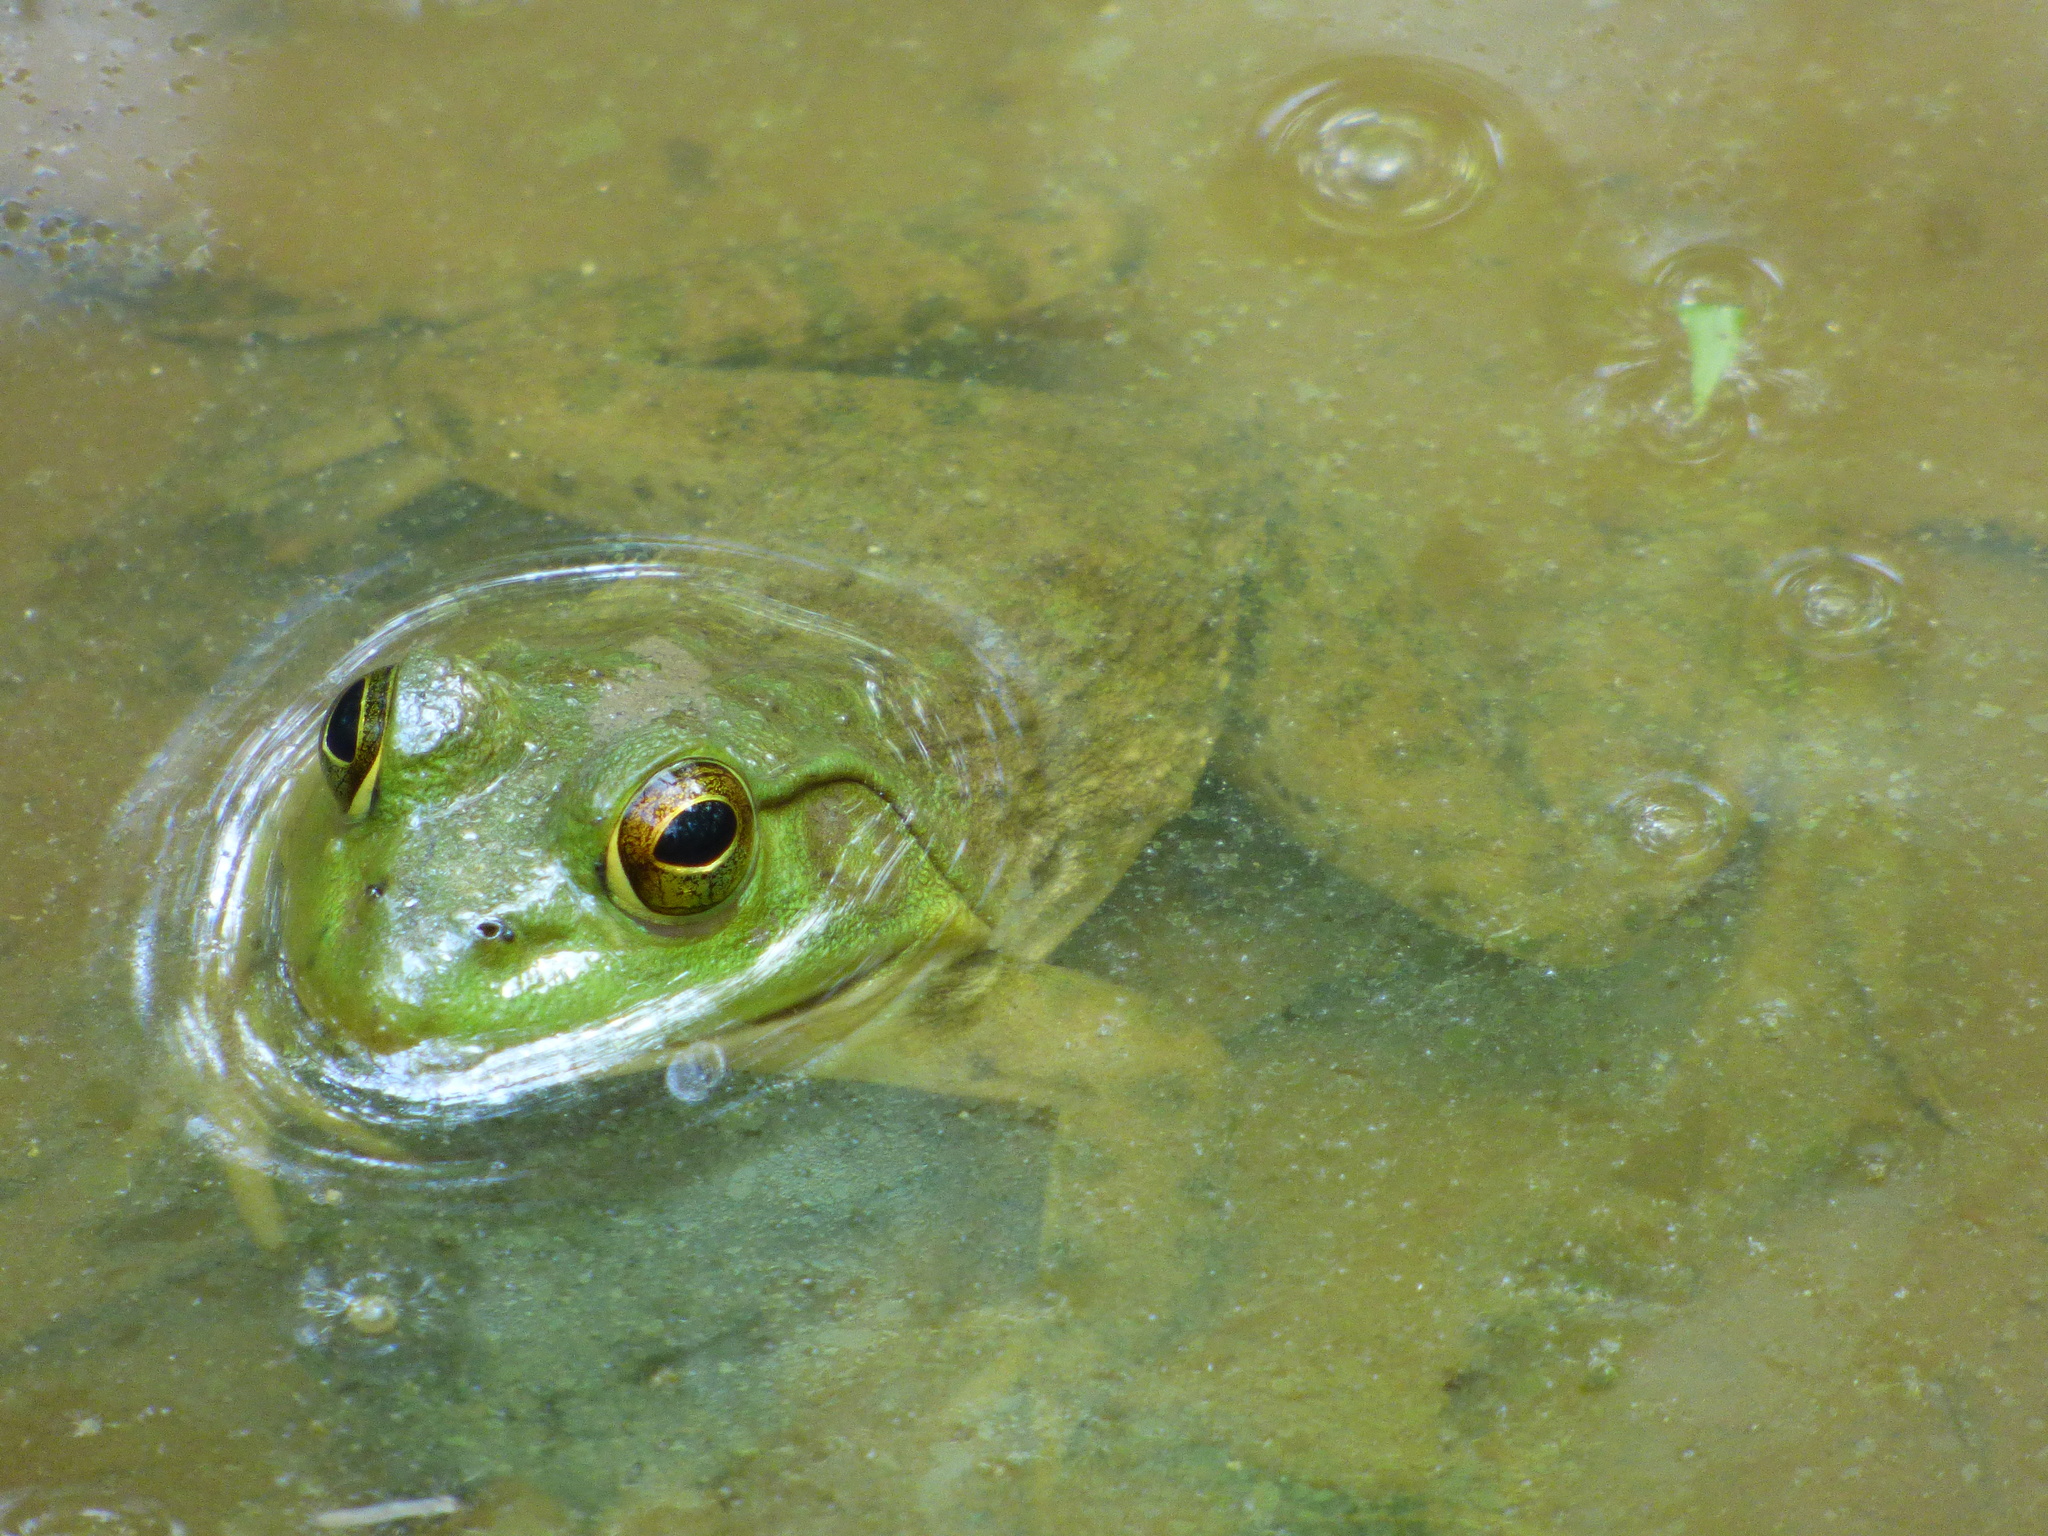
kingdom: Animalia
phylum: Chordata
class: Amphibia
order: Anura
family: Ranidae
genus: Lithobates
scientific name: Lithobates catesbeianus
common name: American bullfrog
